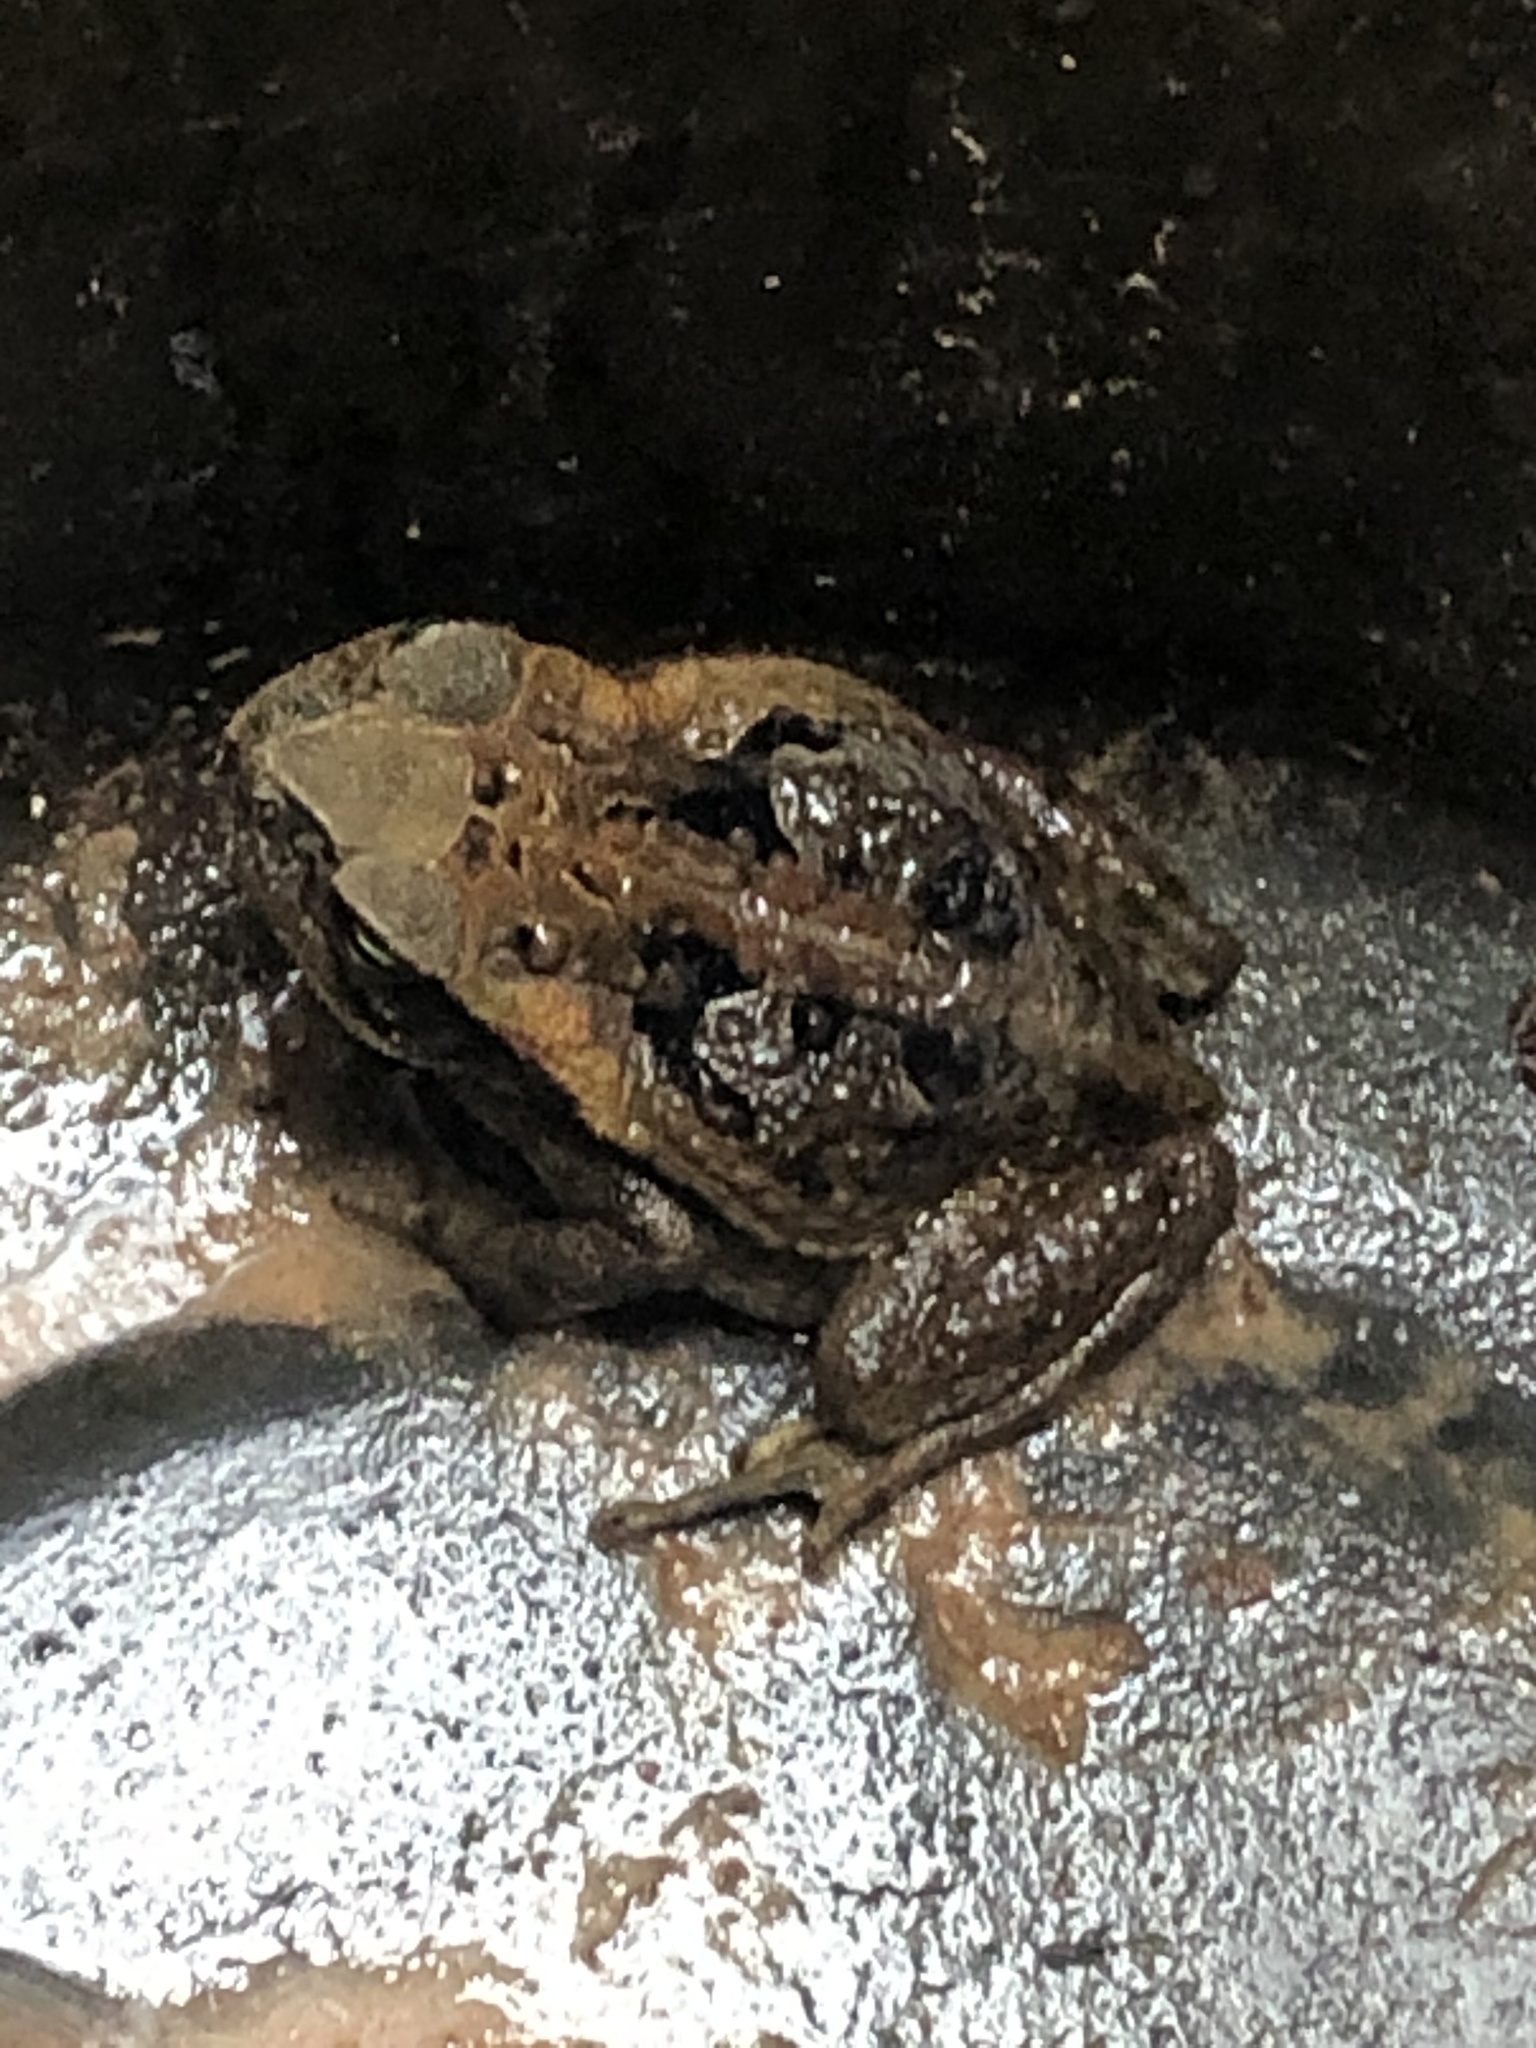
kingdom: Animalia
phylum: Chordata
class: Amphibia
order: Anura
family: Bufonidae
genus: Rhinella
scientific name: Rhinella marina
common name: Cane toad
